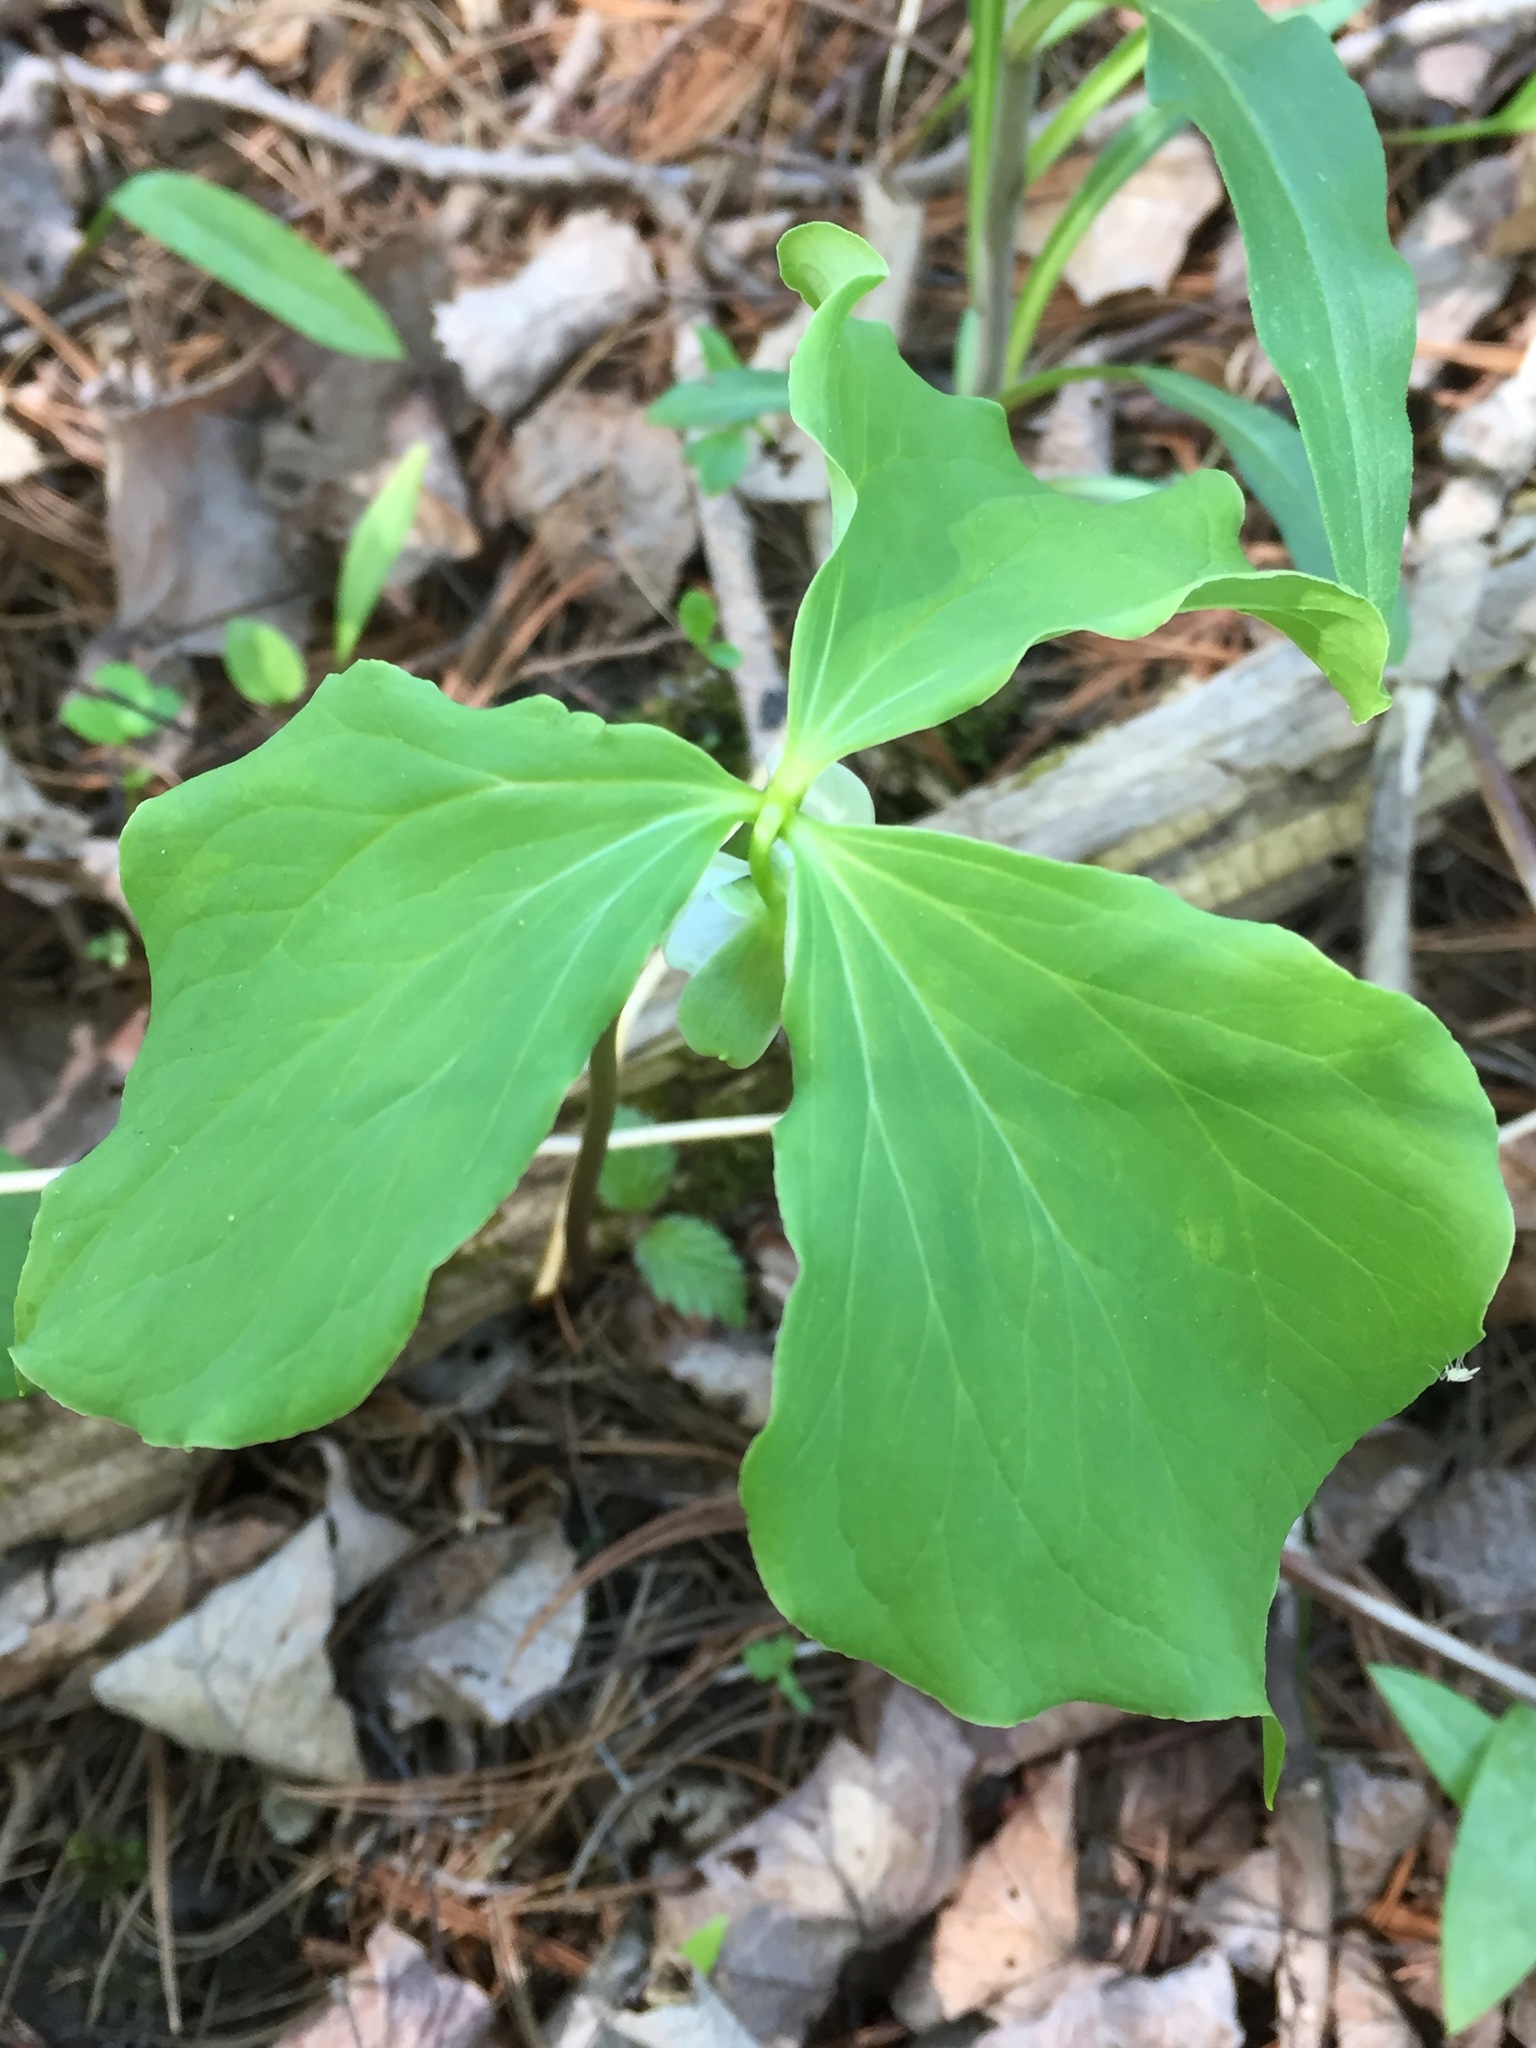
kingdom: Plantae
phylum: Tracheophyta
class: Liliopsida
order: Liliales
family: Melanthiaceae
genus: Trillium
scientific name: Trillium cernuum
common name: Nodding trillium
